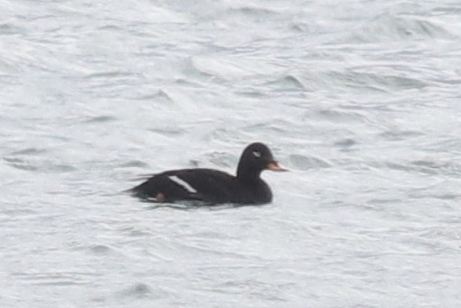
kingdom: Animalia
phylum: Chordata
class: Aves
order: Anseriformes
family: Anatidae
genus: Melanitta
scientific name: Melanitta fusca
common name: Velvet scoter
